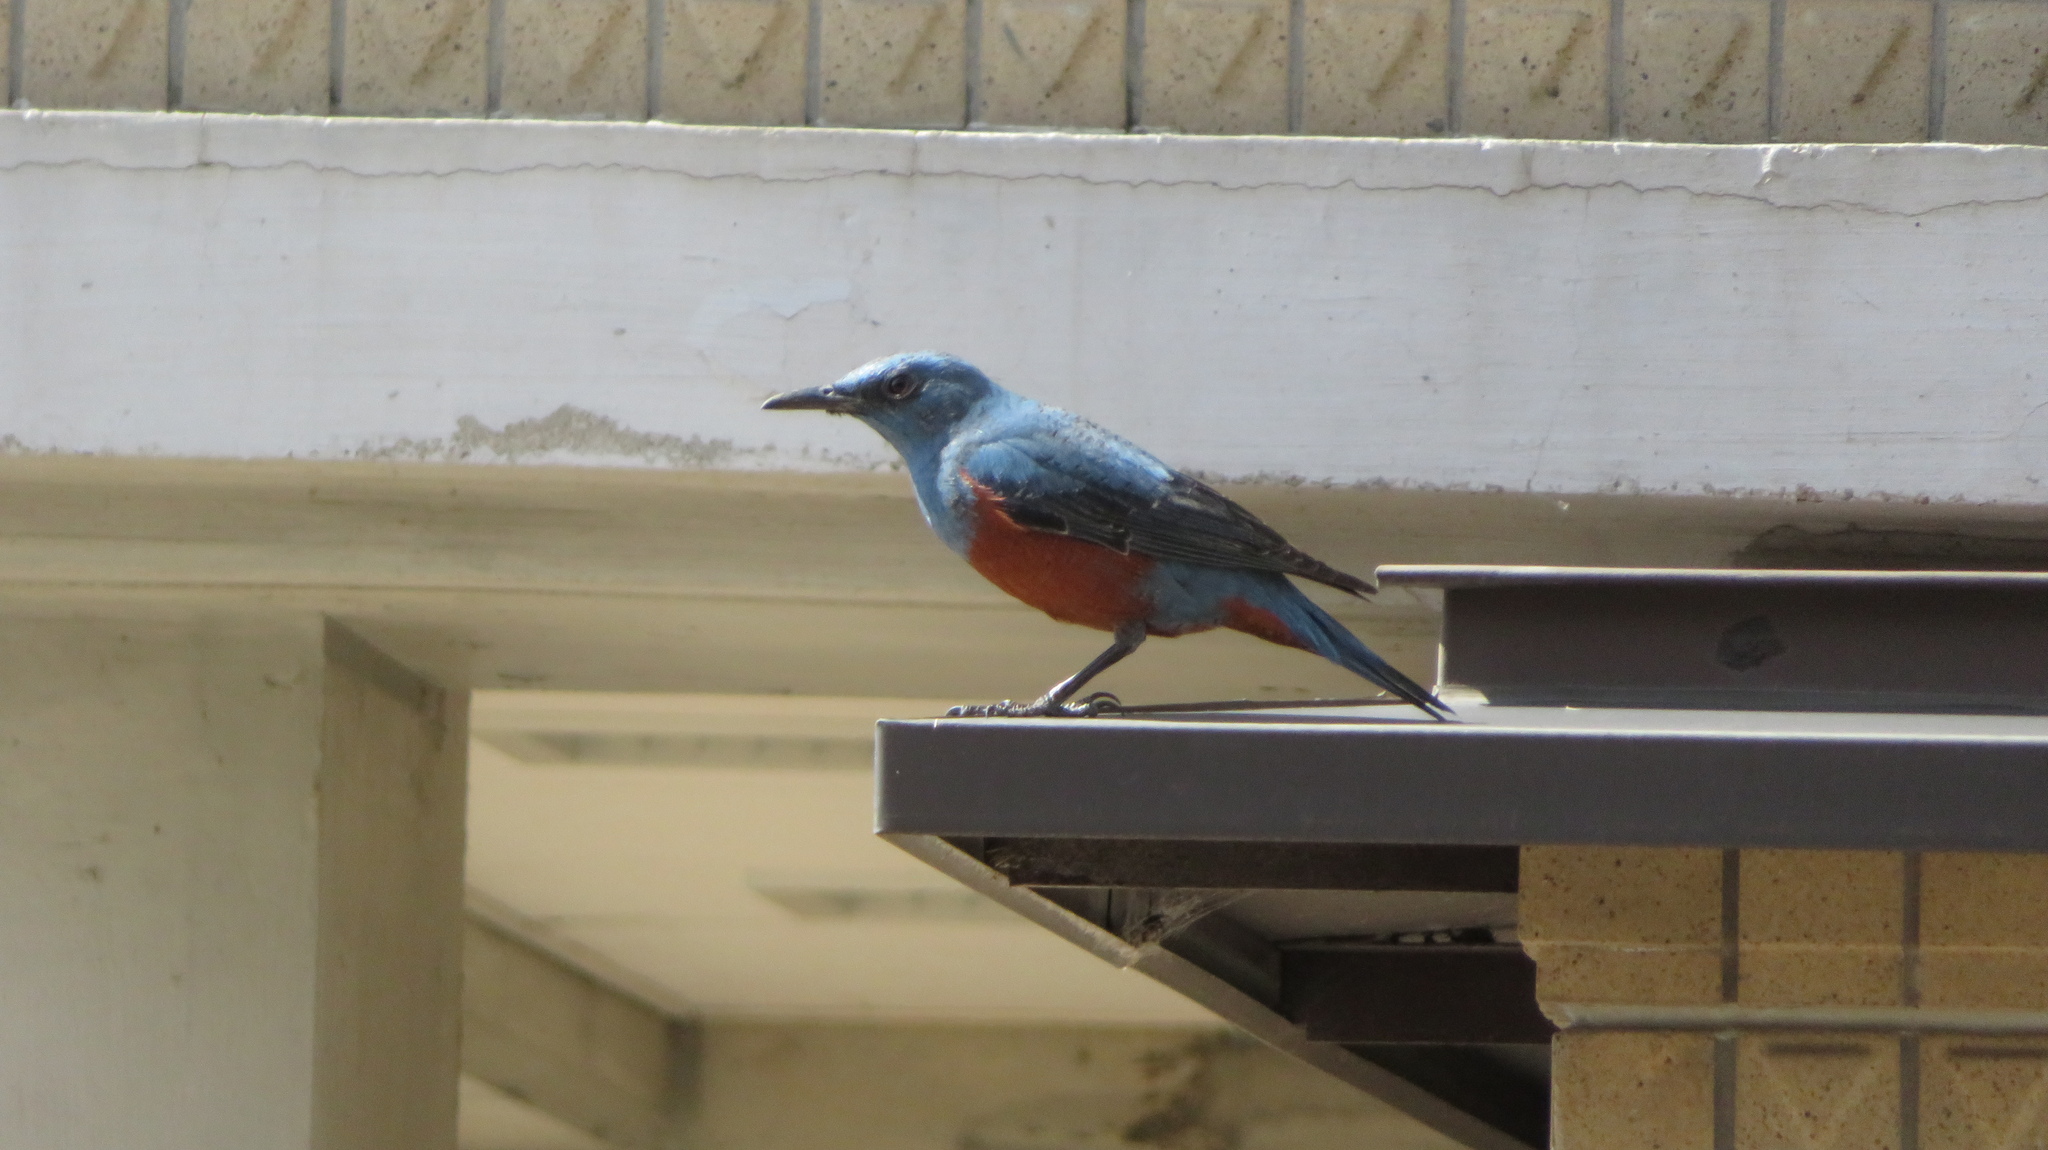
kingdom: Animalia
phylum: Chordata
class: Aves
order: Passeriformes
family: Muscicapidae
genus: Monticola
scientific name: Monticola solitarius
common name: Blue rock thrush
